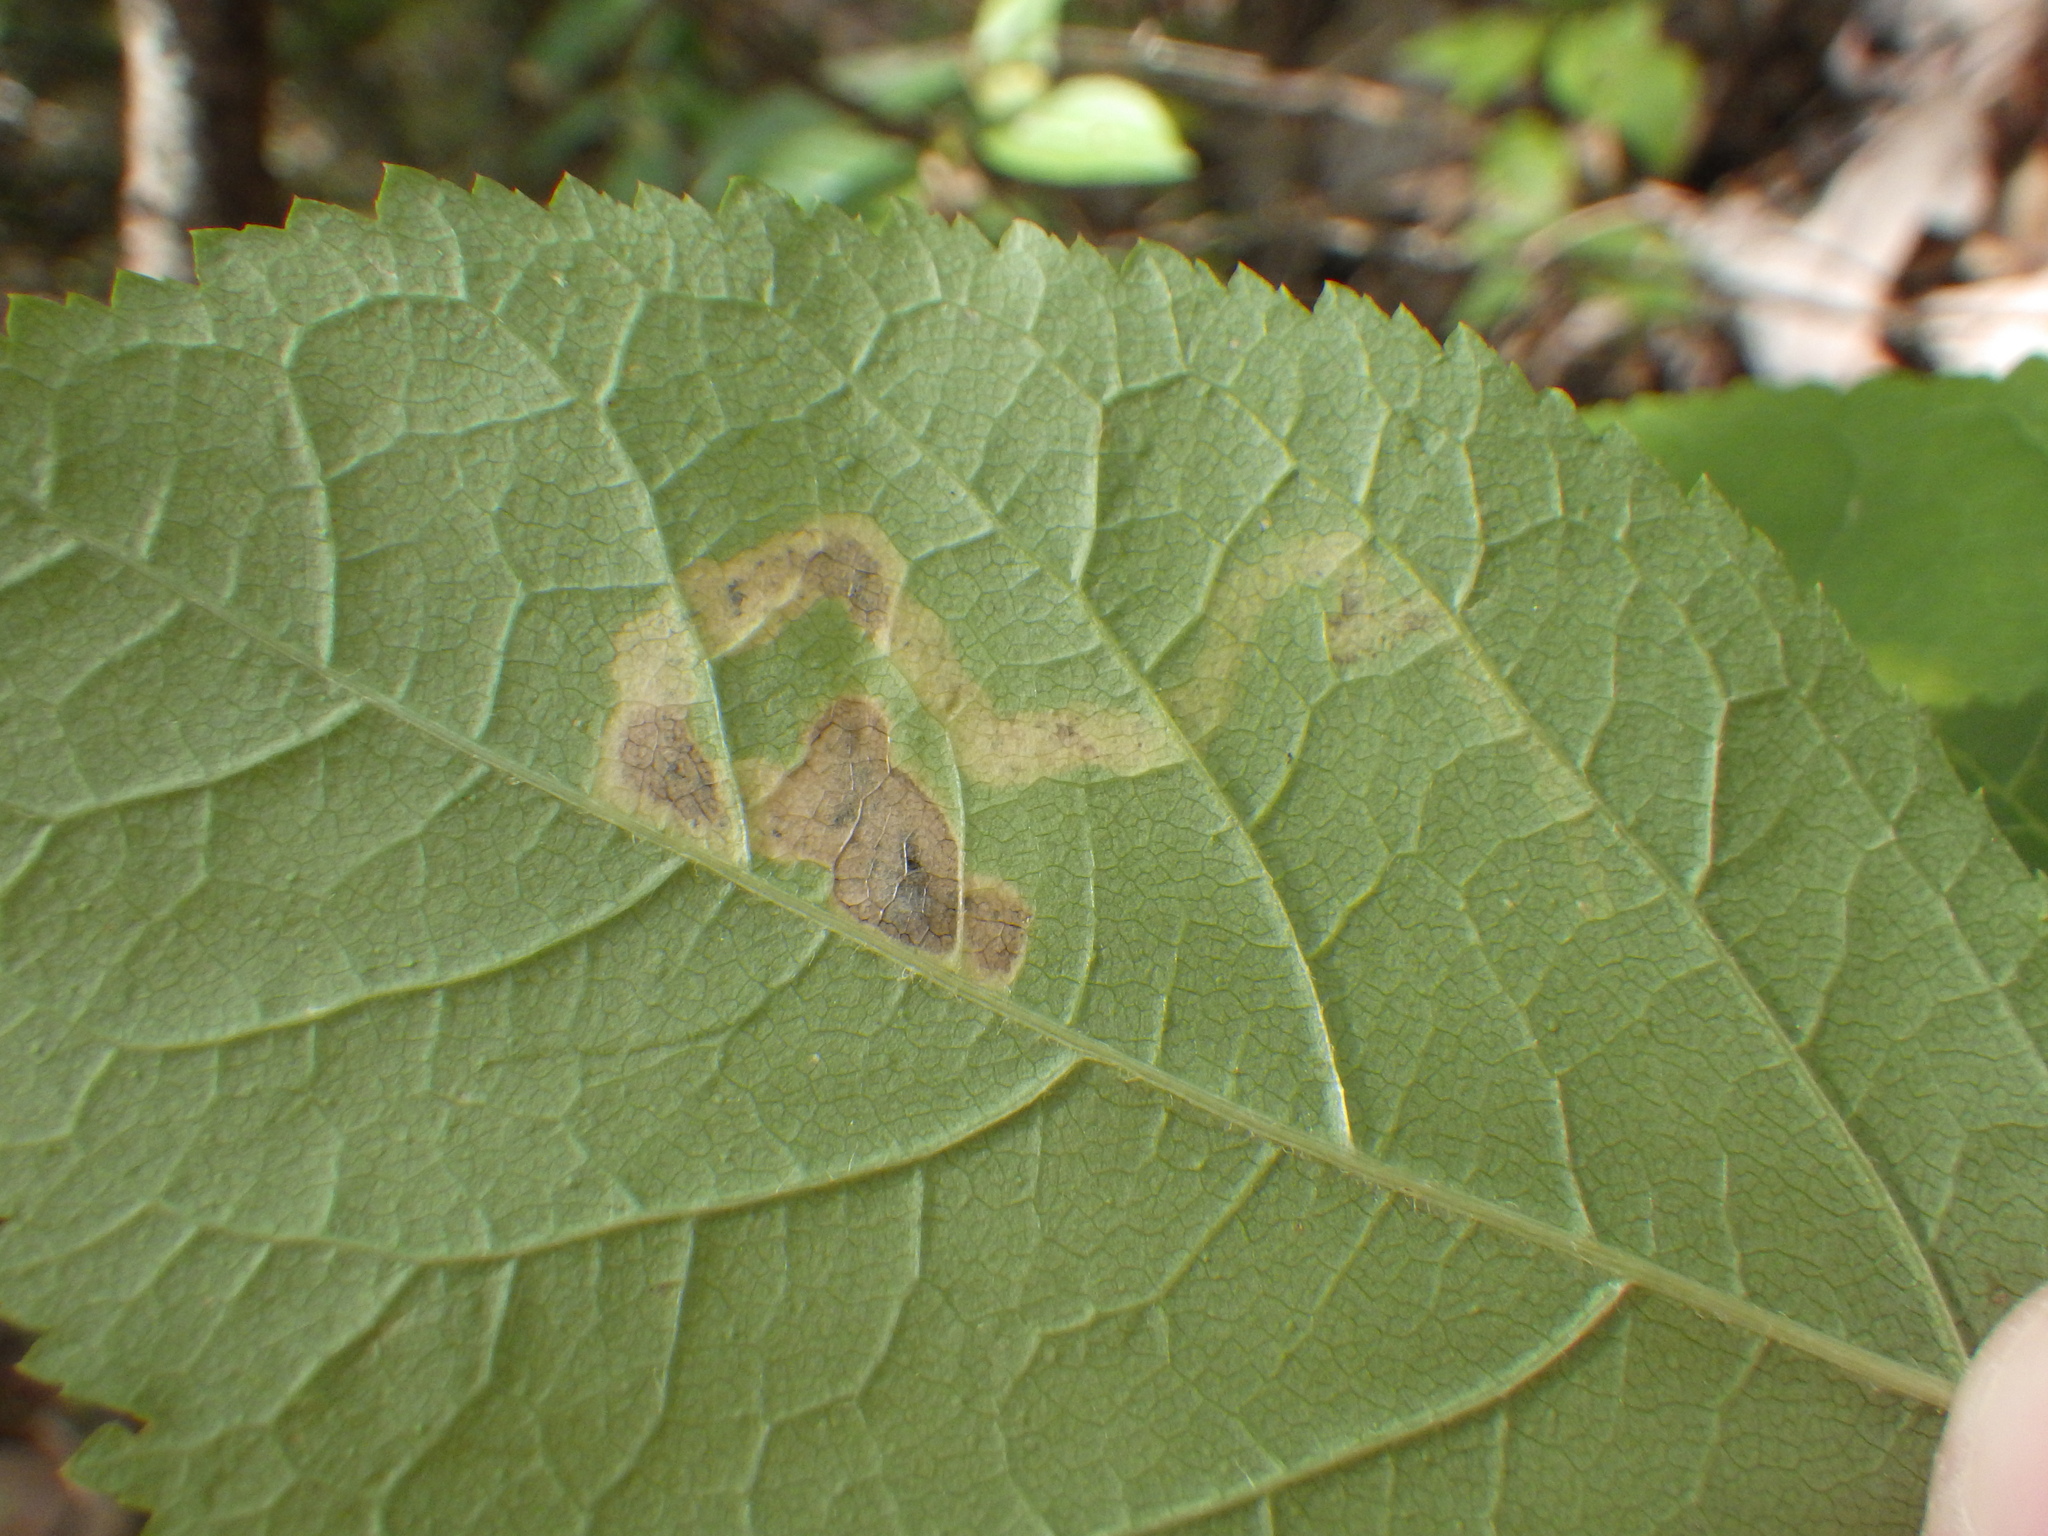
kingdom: Animalia
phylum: Arthropoda
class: Insecta
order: Diptera
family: Agromyzidae
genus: Phytomyza
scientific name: Phytomyza aralivora
